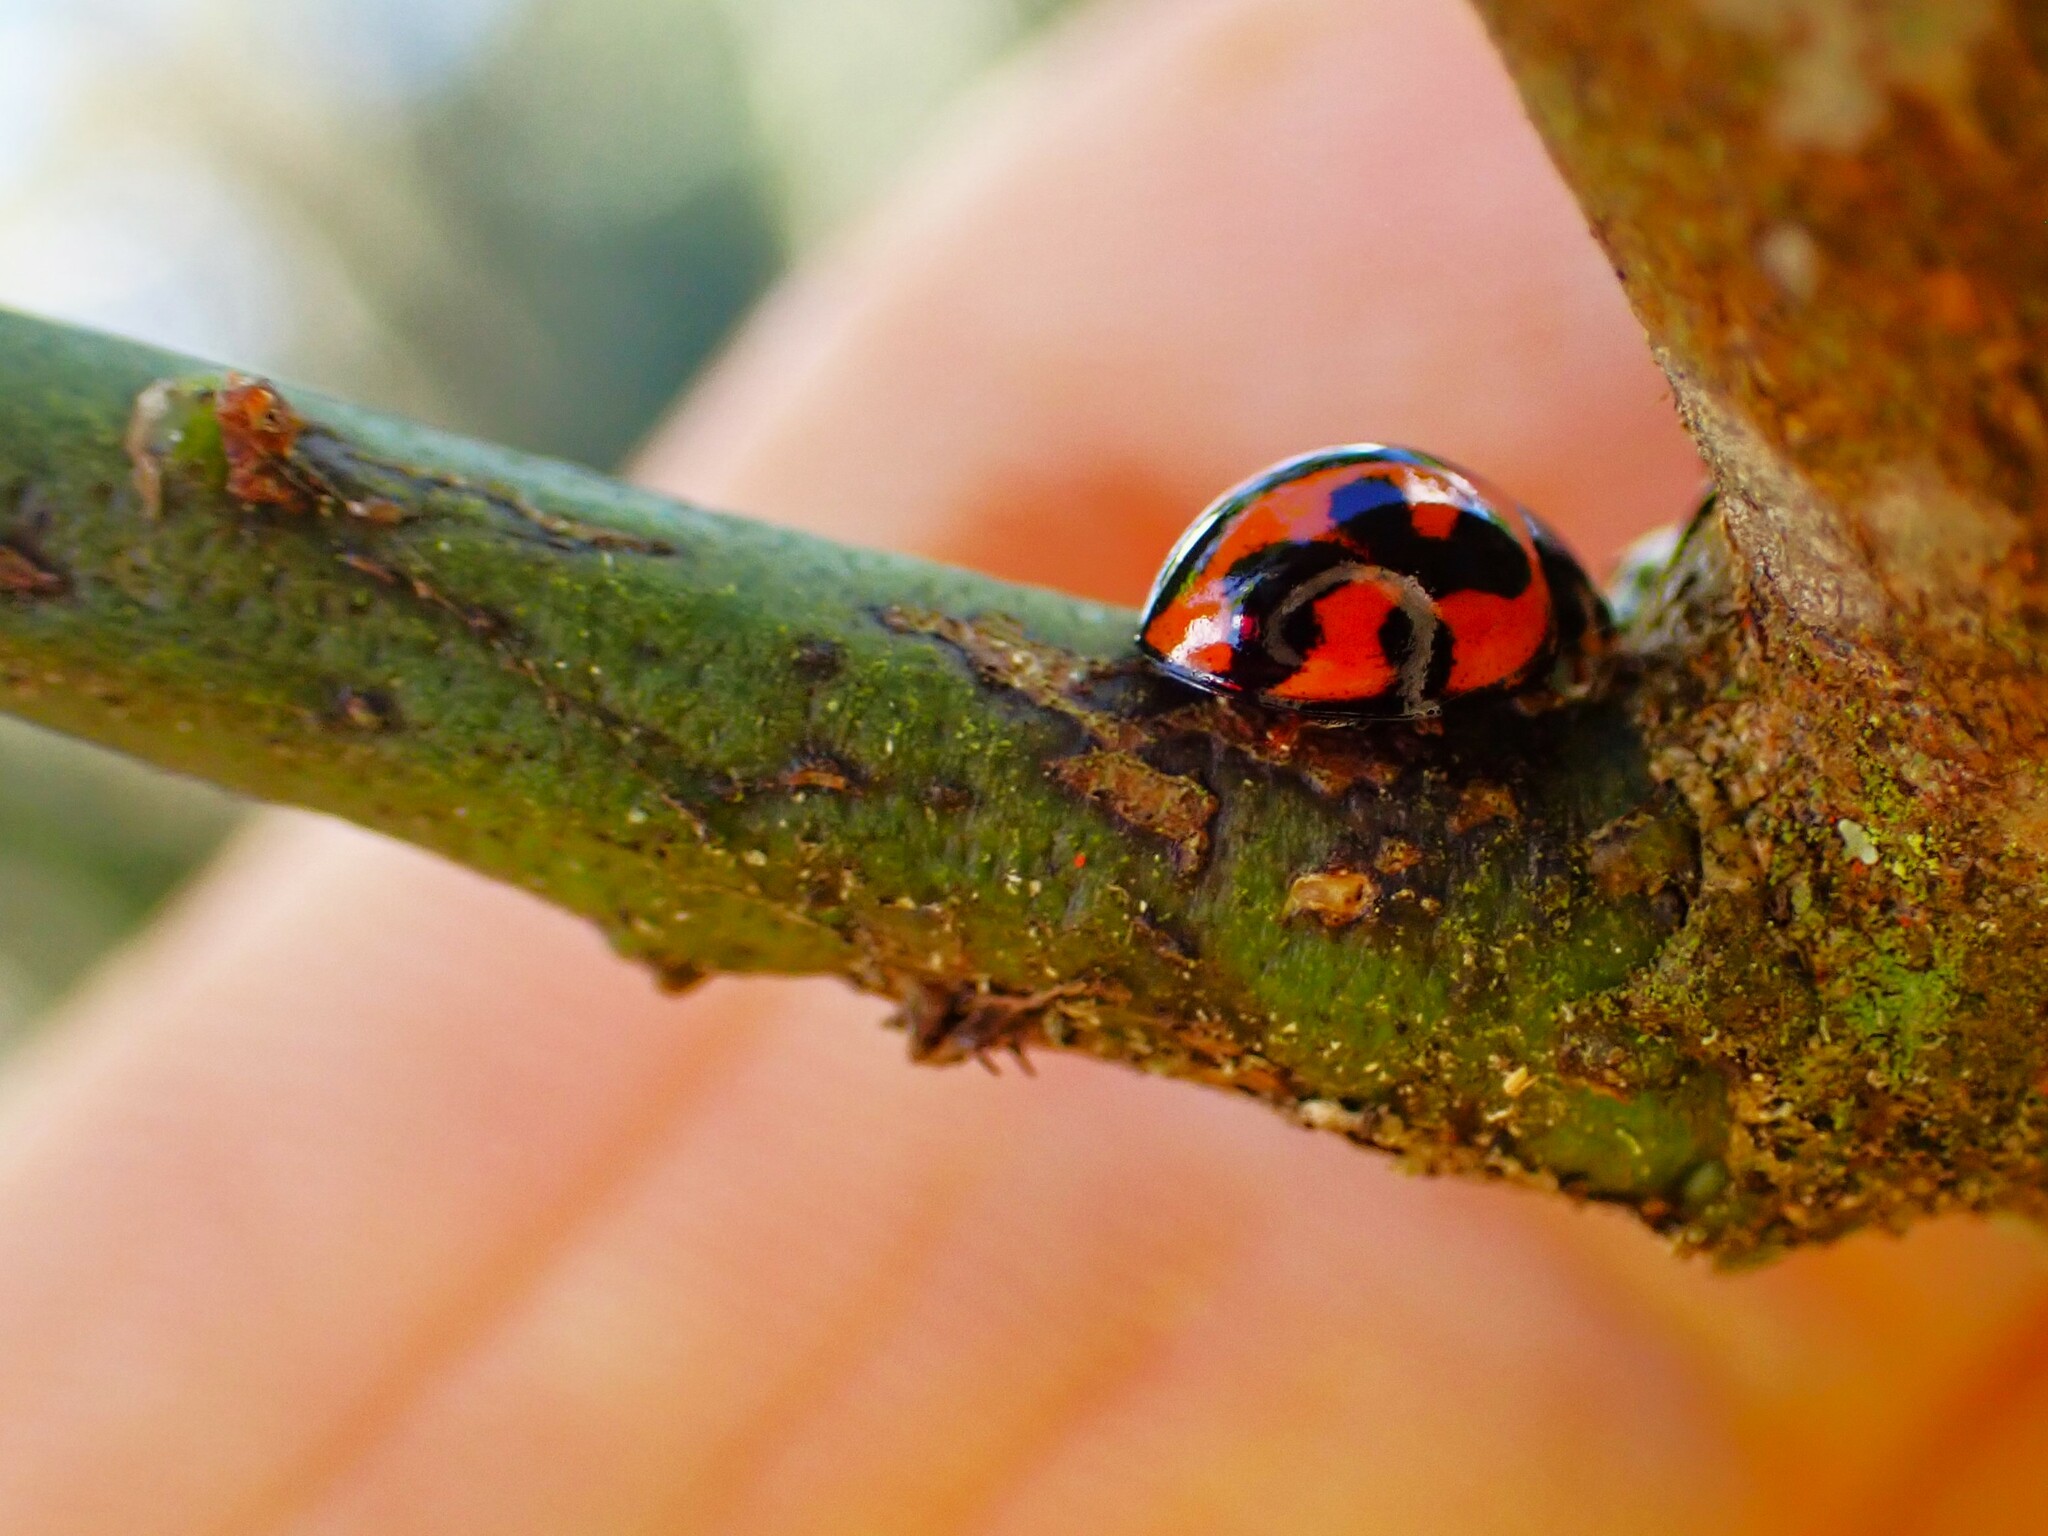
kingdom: Animalia
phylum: Arthropoda
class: Insecta
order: Coleoptera
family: Coccinellidae
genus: Coelophora
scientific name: Coelophora inaequalis
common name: Common australian lady beetle
